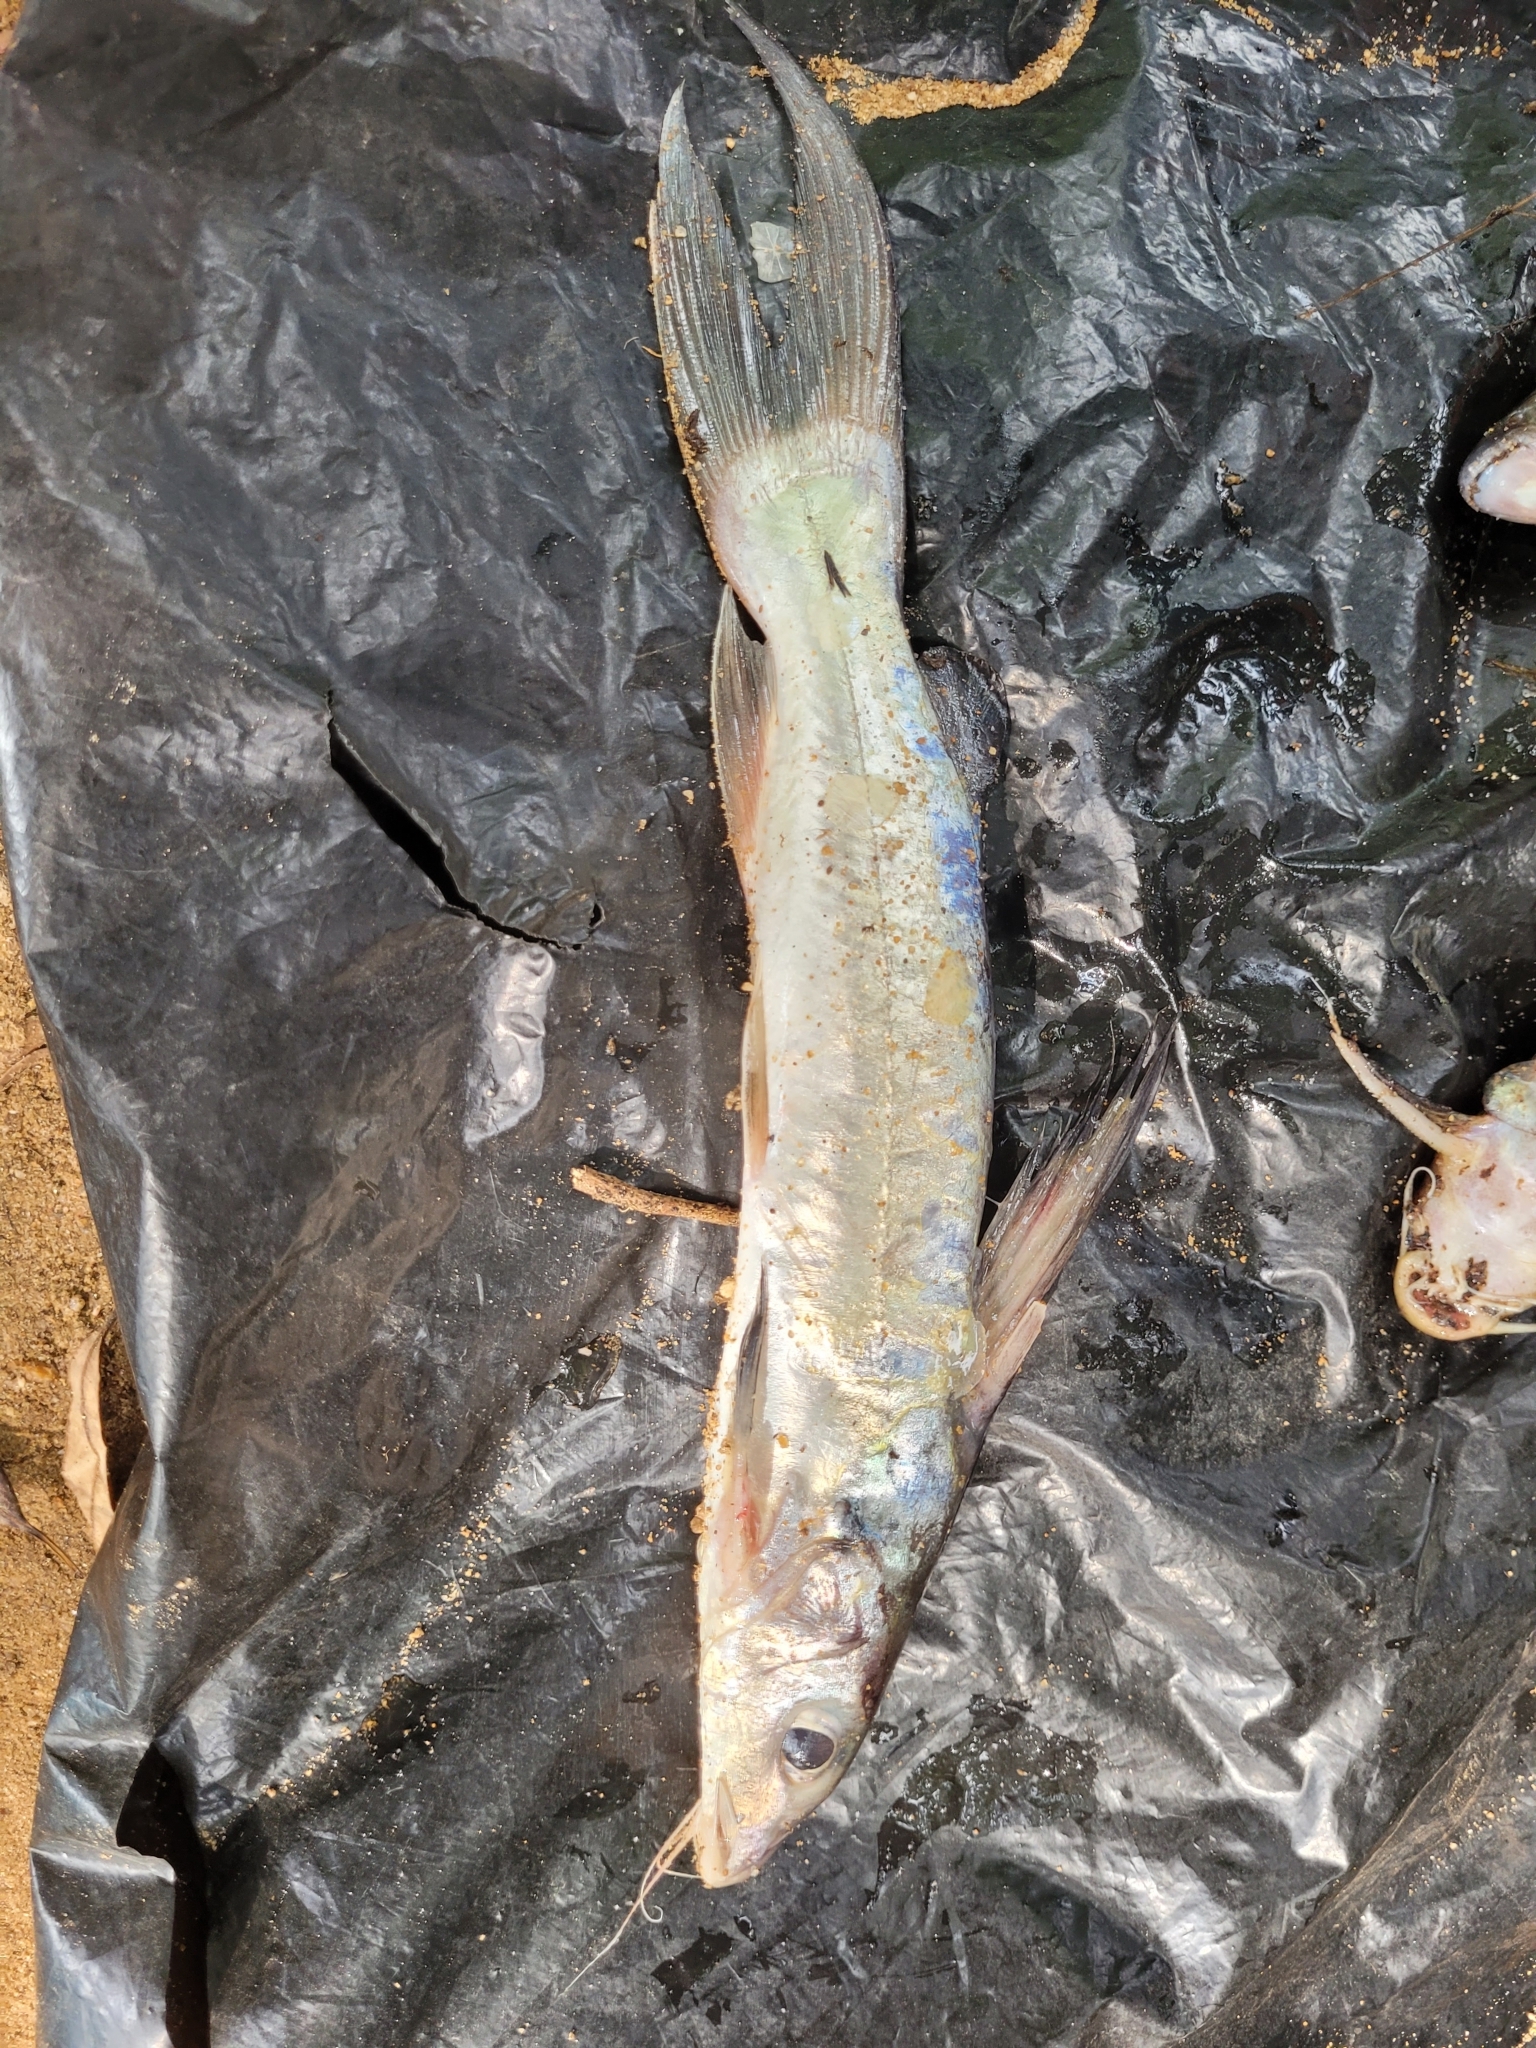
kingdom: Animalia
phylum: Chordata
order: Siluriformes
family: Claroteidae
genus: Chrysichthys
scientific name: Chrysichthys nigrodigitatus
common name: Bagrid catfish
